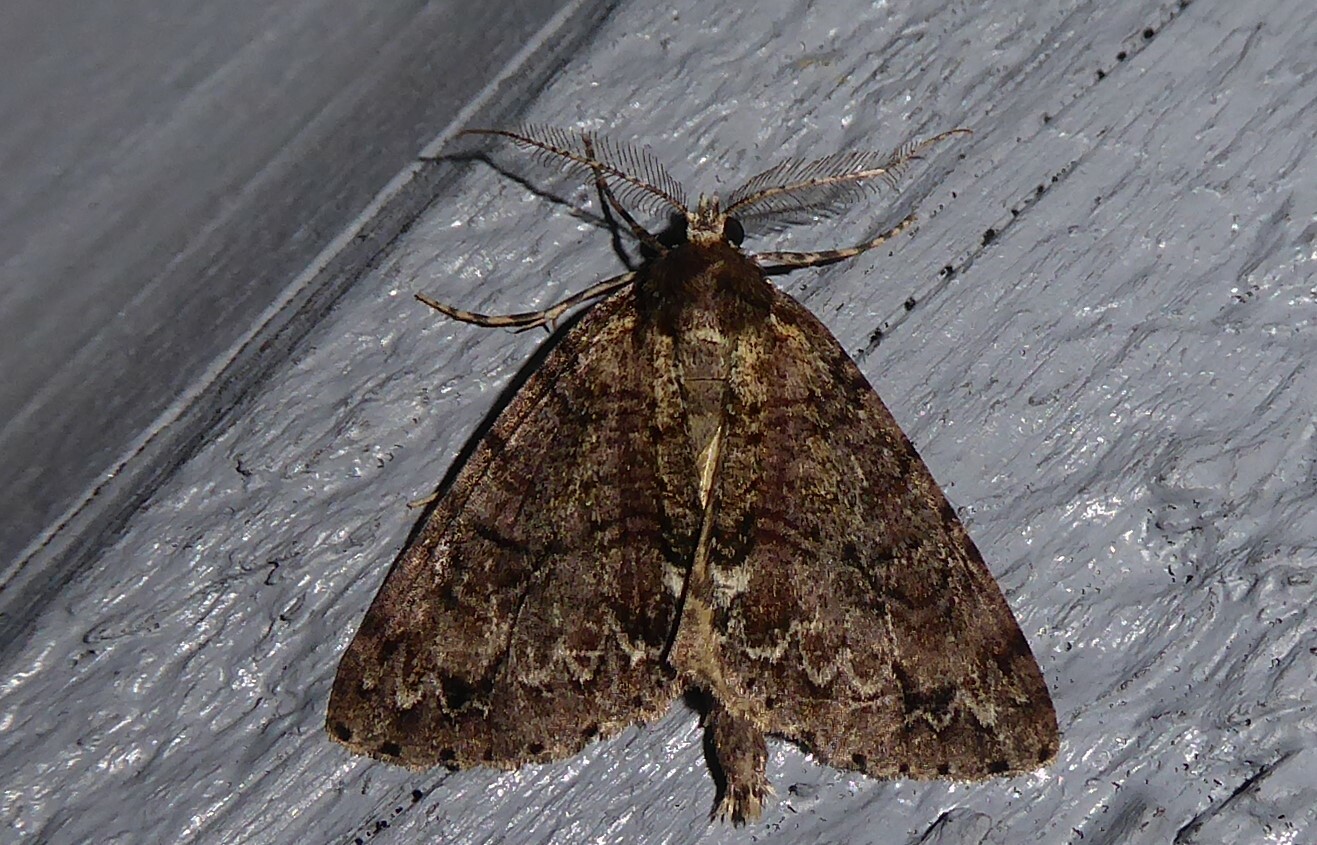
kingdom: Animalia
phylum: Arthropoda
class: Insecta
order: Lepidoptera
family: Geometridae
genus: Pseudocoremia
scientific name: Pseudocoremia suavis
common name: Common forest looper
